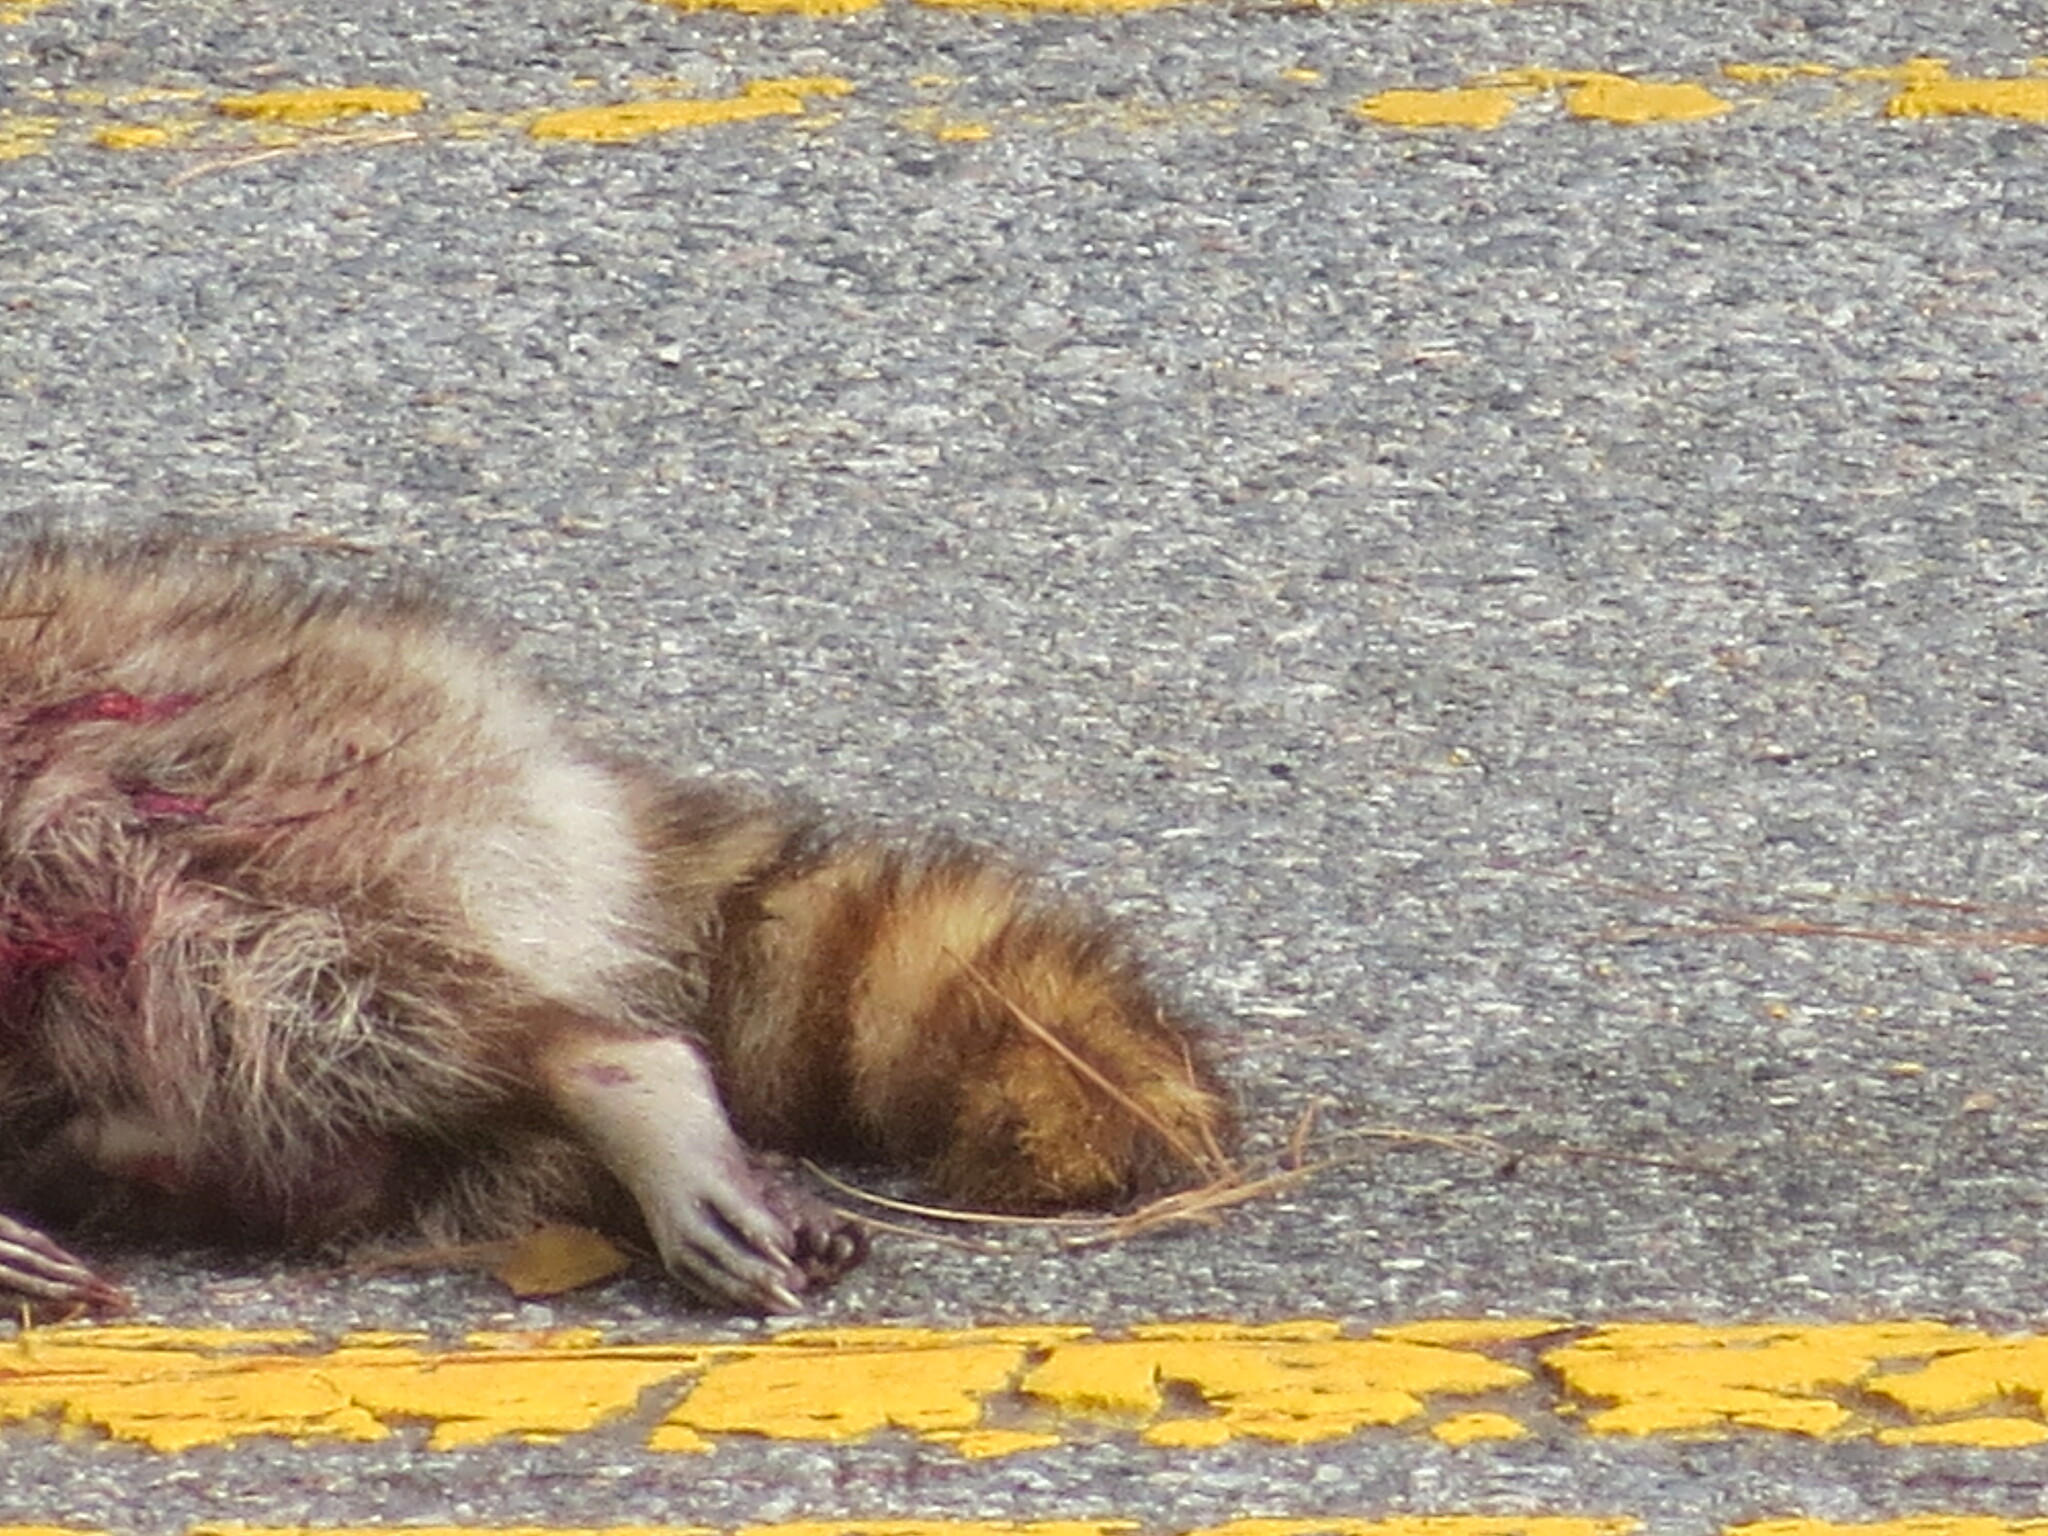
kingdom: Animalia
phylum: Chordata
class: Mammalia
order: Carnivora
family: Procyonidae
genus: Procyon
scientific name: Procyon lotor
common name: Raccoon
